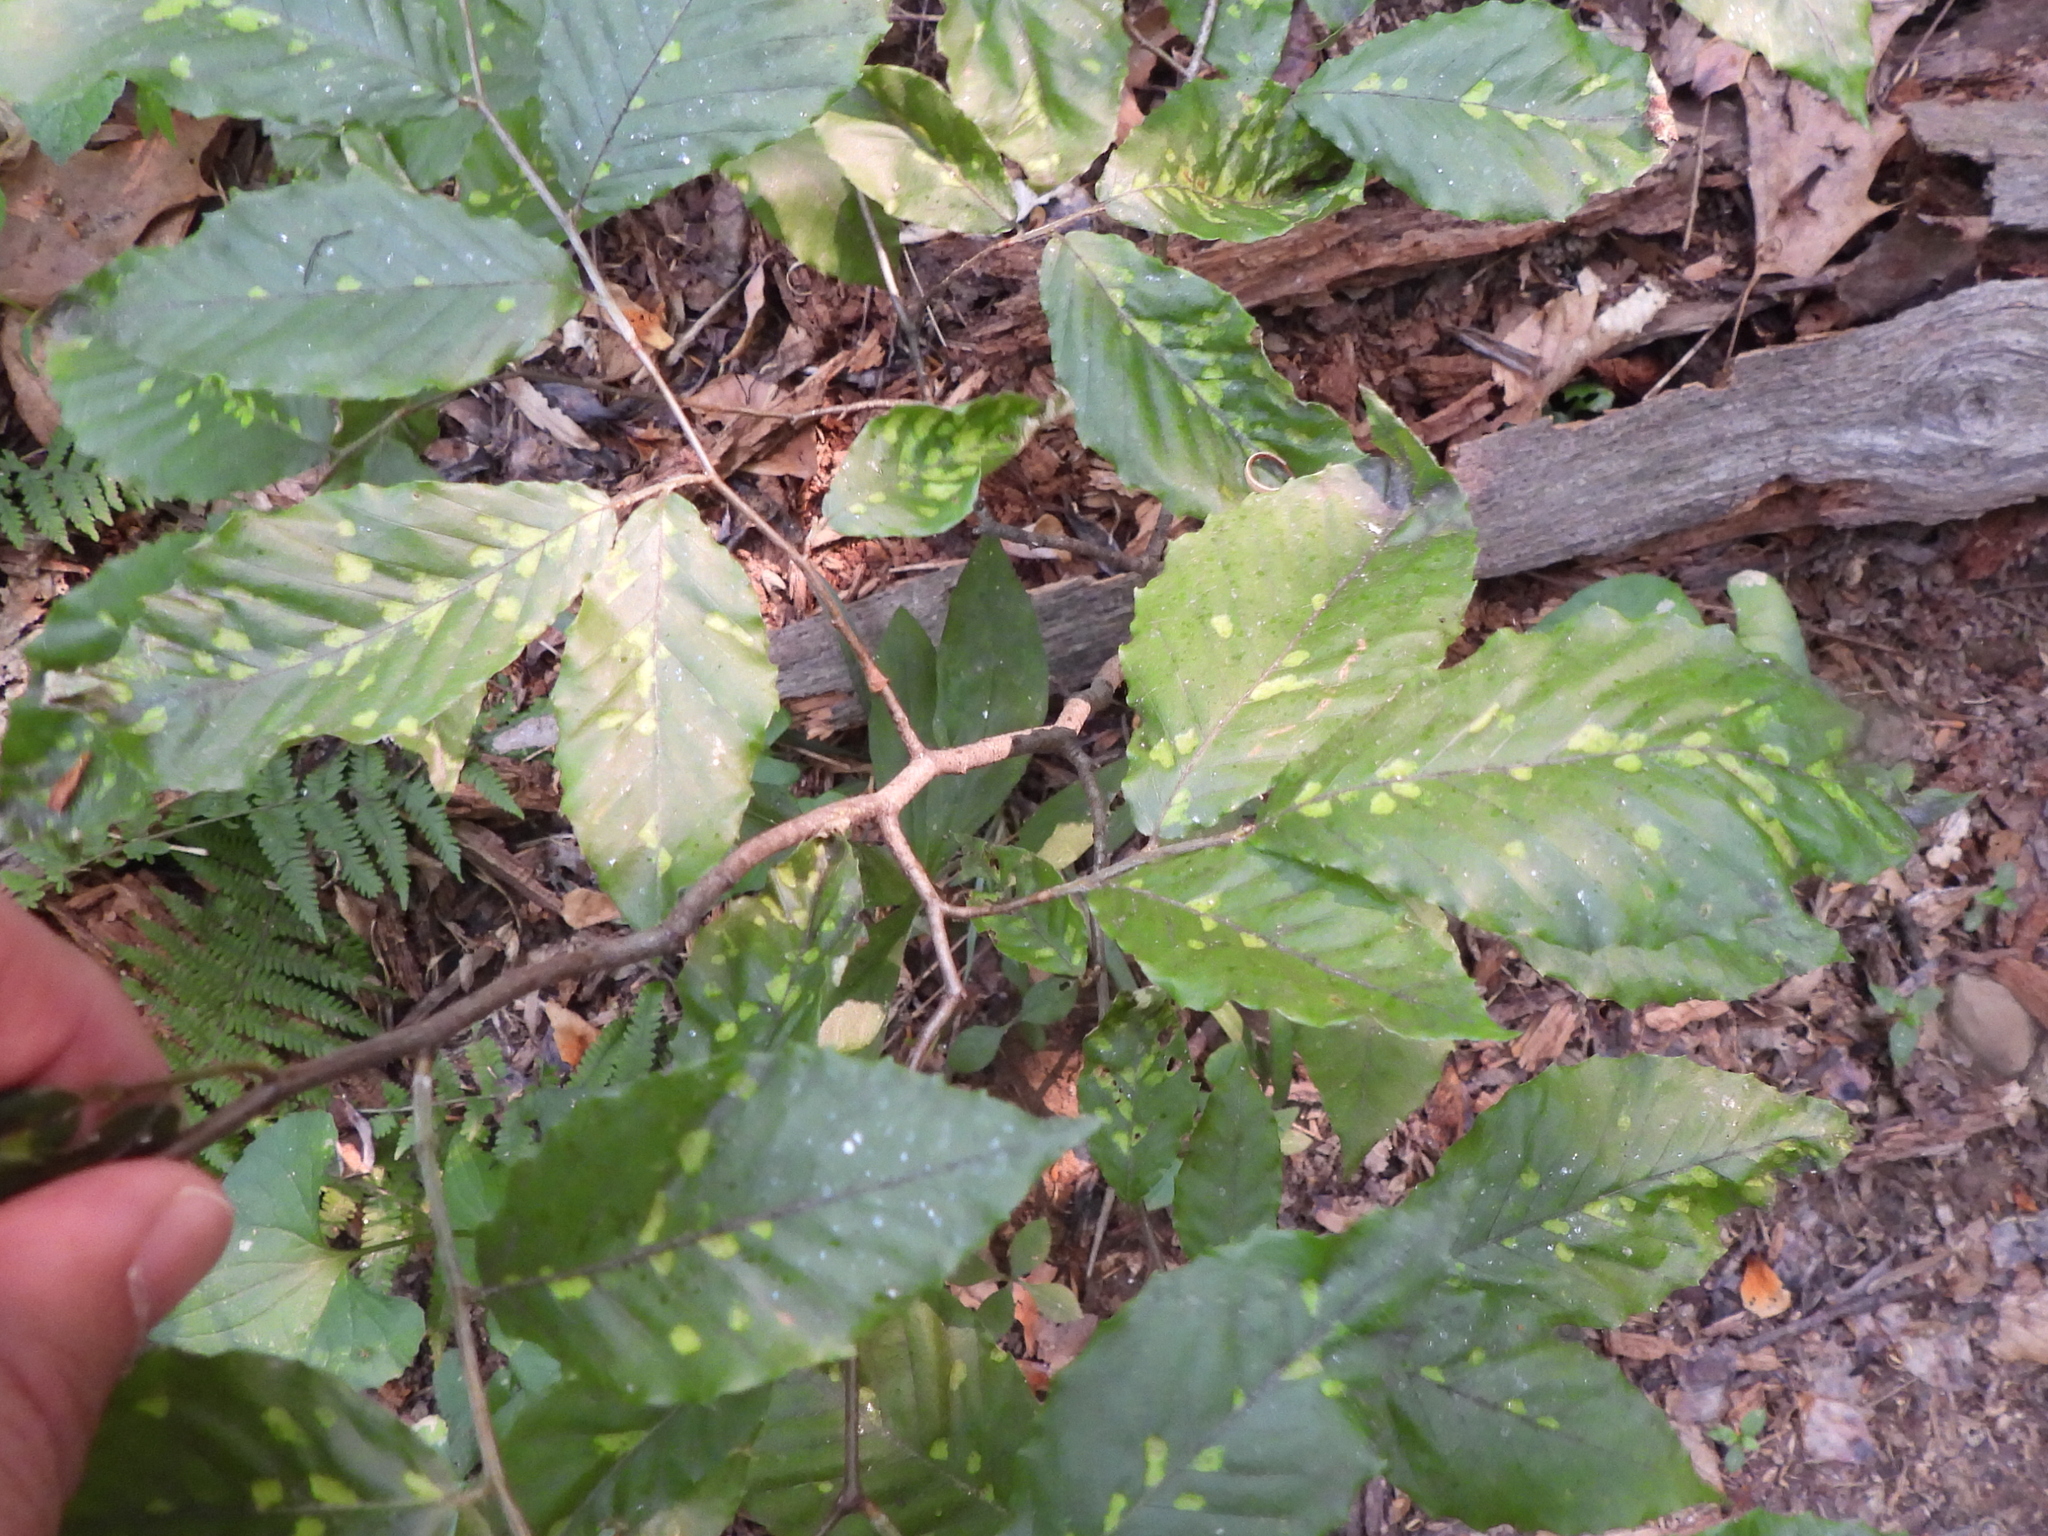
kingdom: Animalia
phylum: Arthropoda
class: Arachnida
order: Trombidiformes
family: Eriophyidae
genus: Acalitus
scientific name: Acalitus
